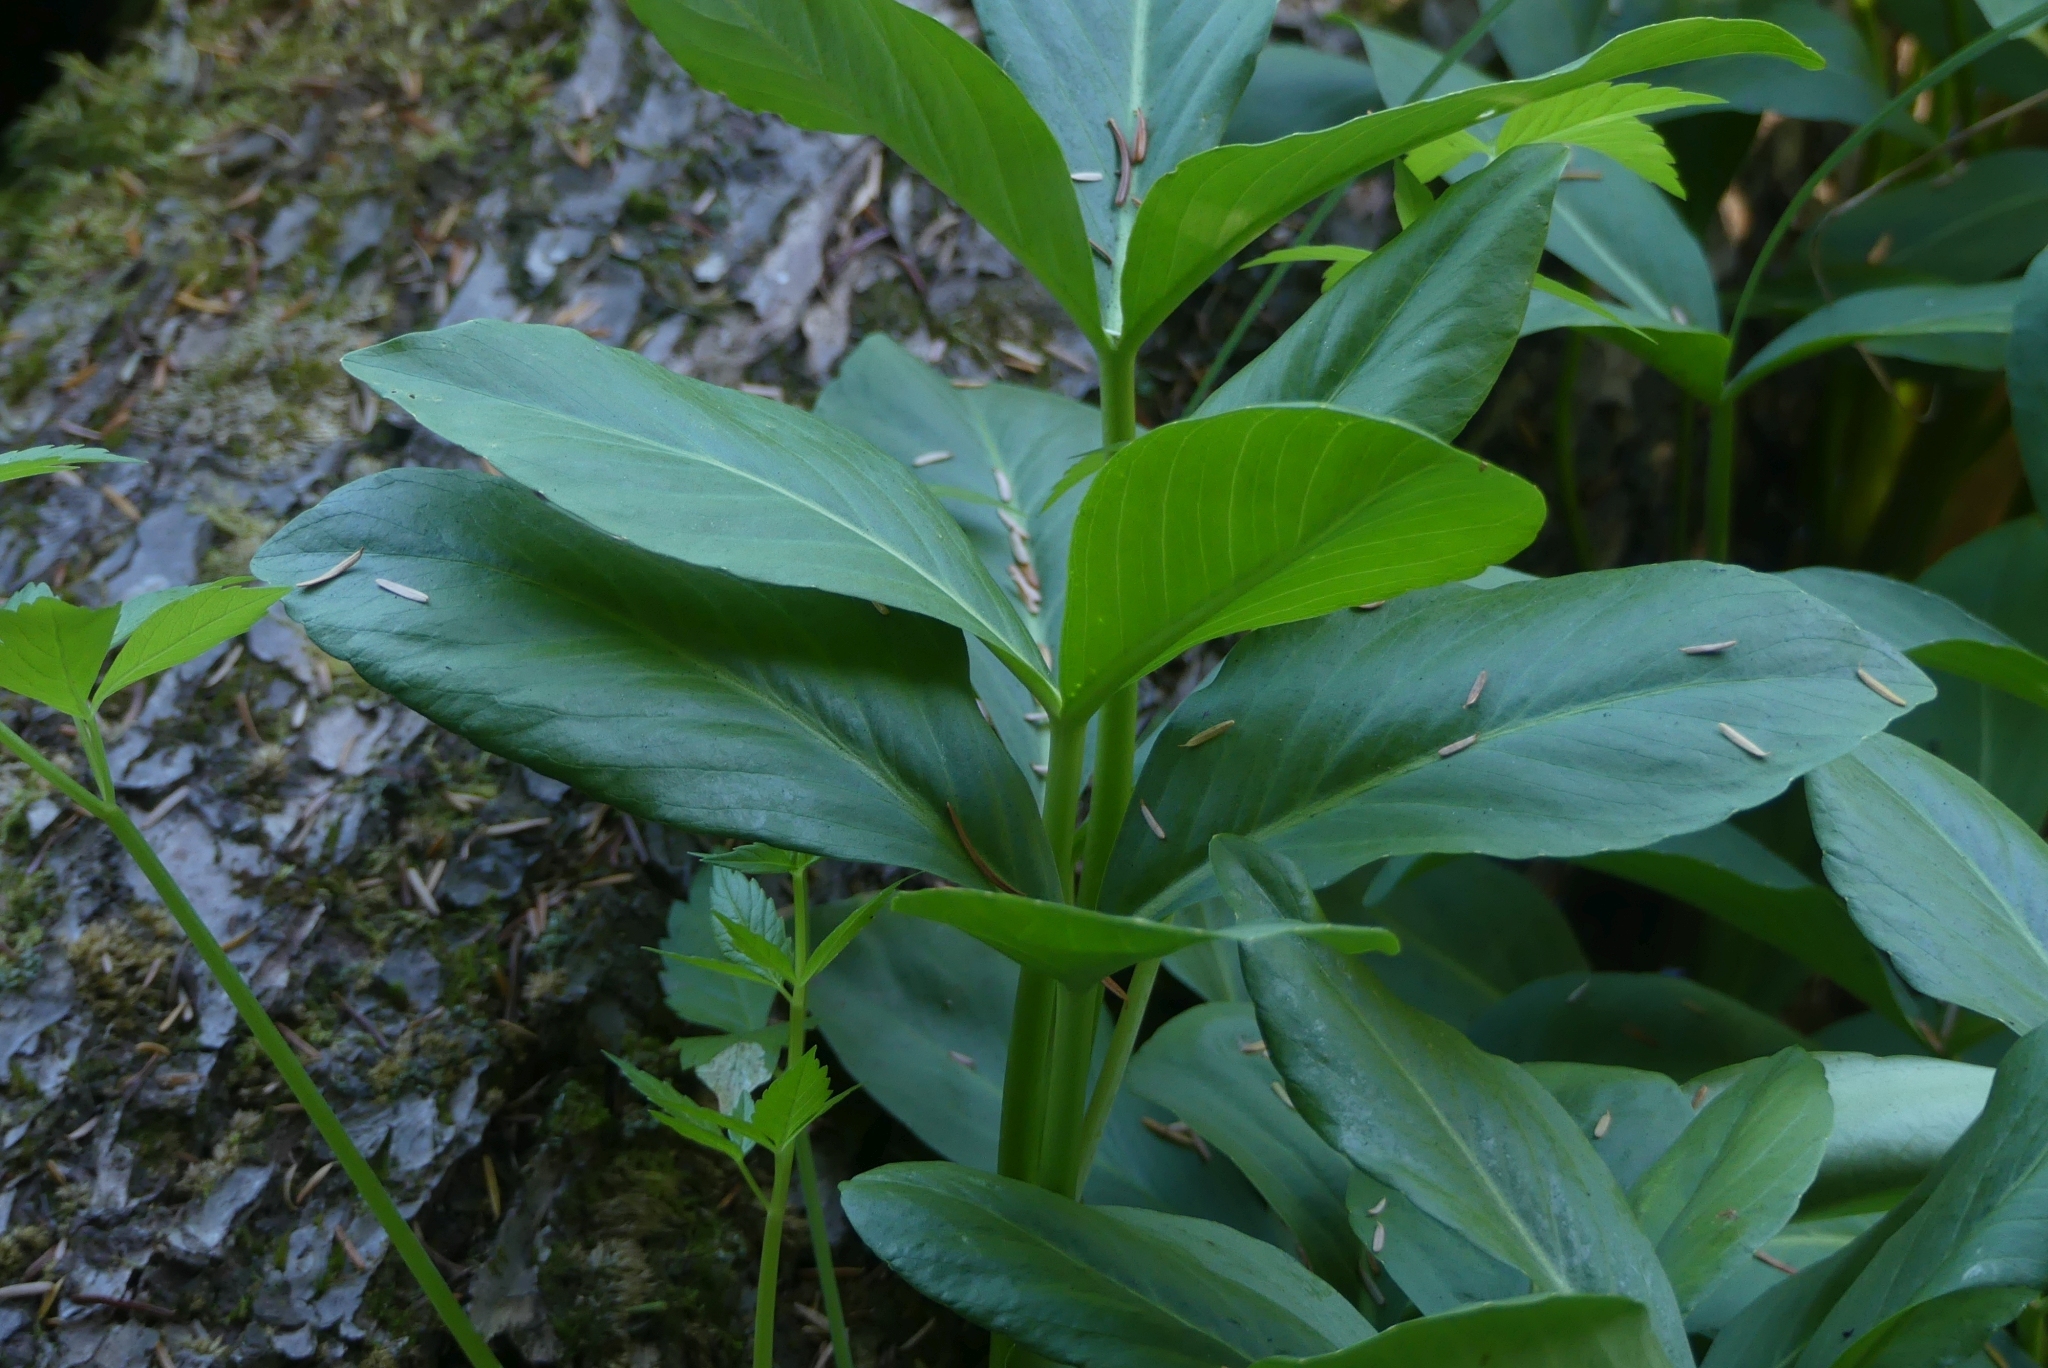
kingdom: Plantae
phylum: Tracheophyta
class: Magnoliopsida
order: Asterales
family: Menyanthaceae
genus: Menyanthes
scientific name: Menyanthes trifoliata
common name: Bogbean
